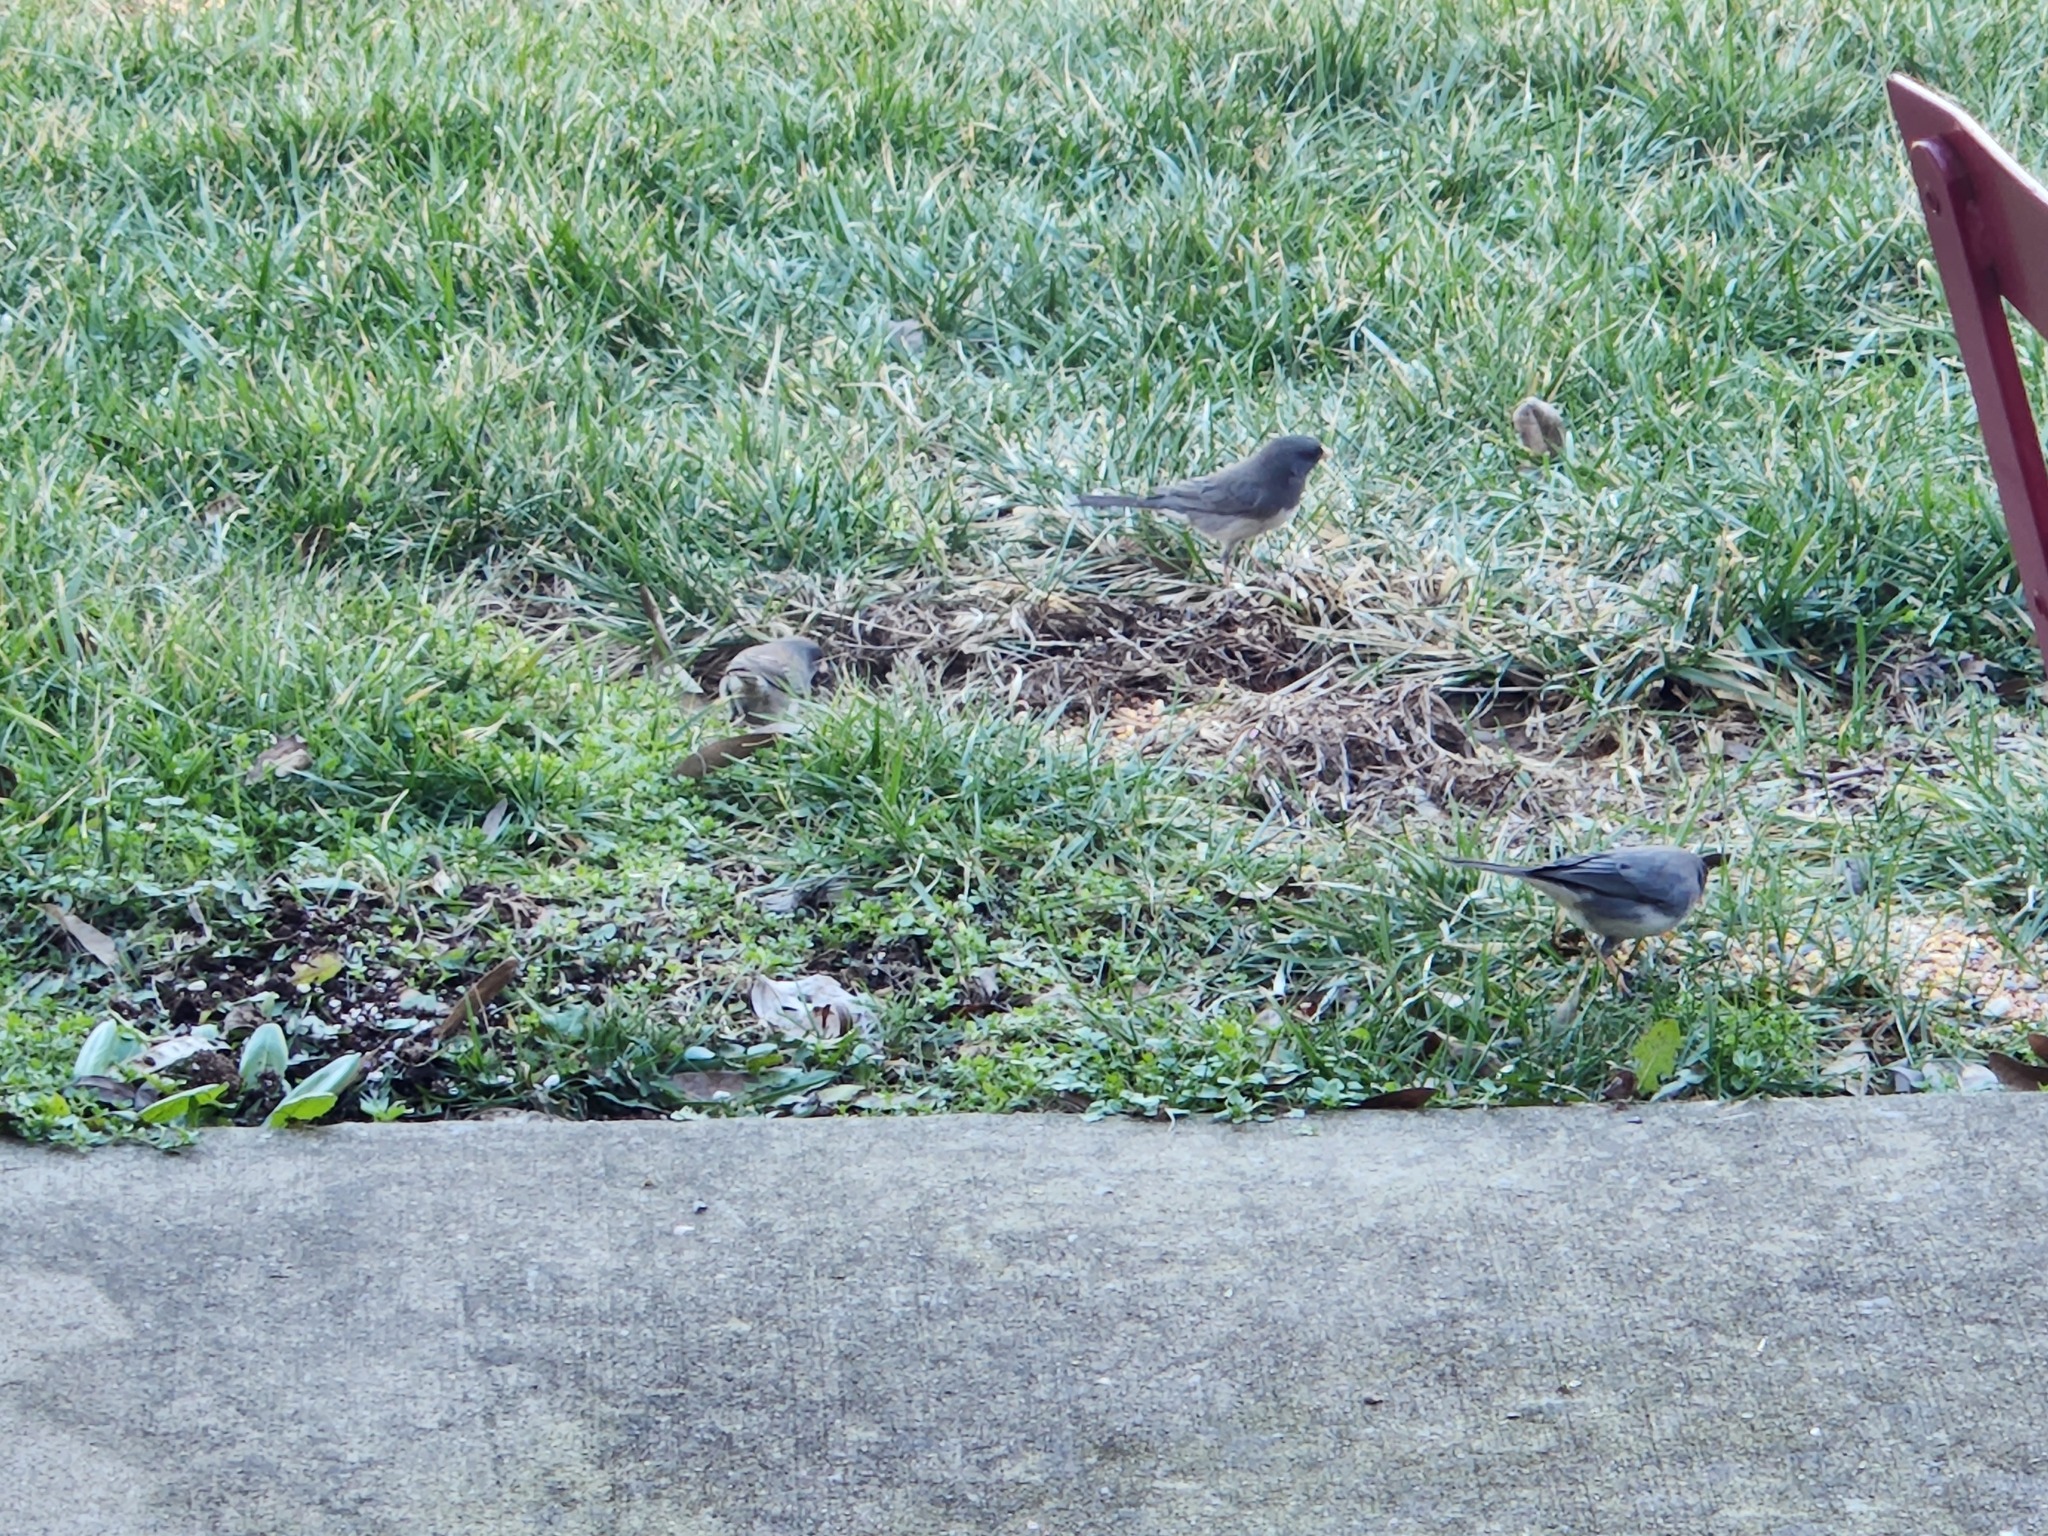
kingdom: Animalia
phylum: Chordata
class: Aves
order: Passeriformes
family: Passerellidae
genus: Junco
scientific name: Junco hyemalis
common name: Dark-eyed junco
